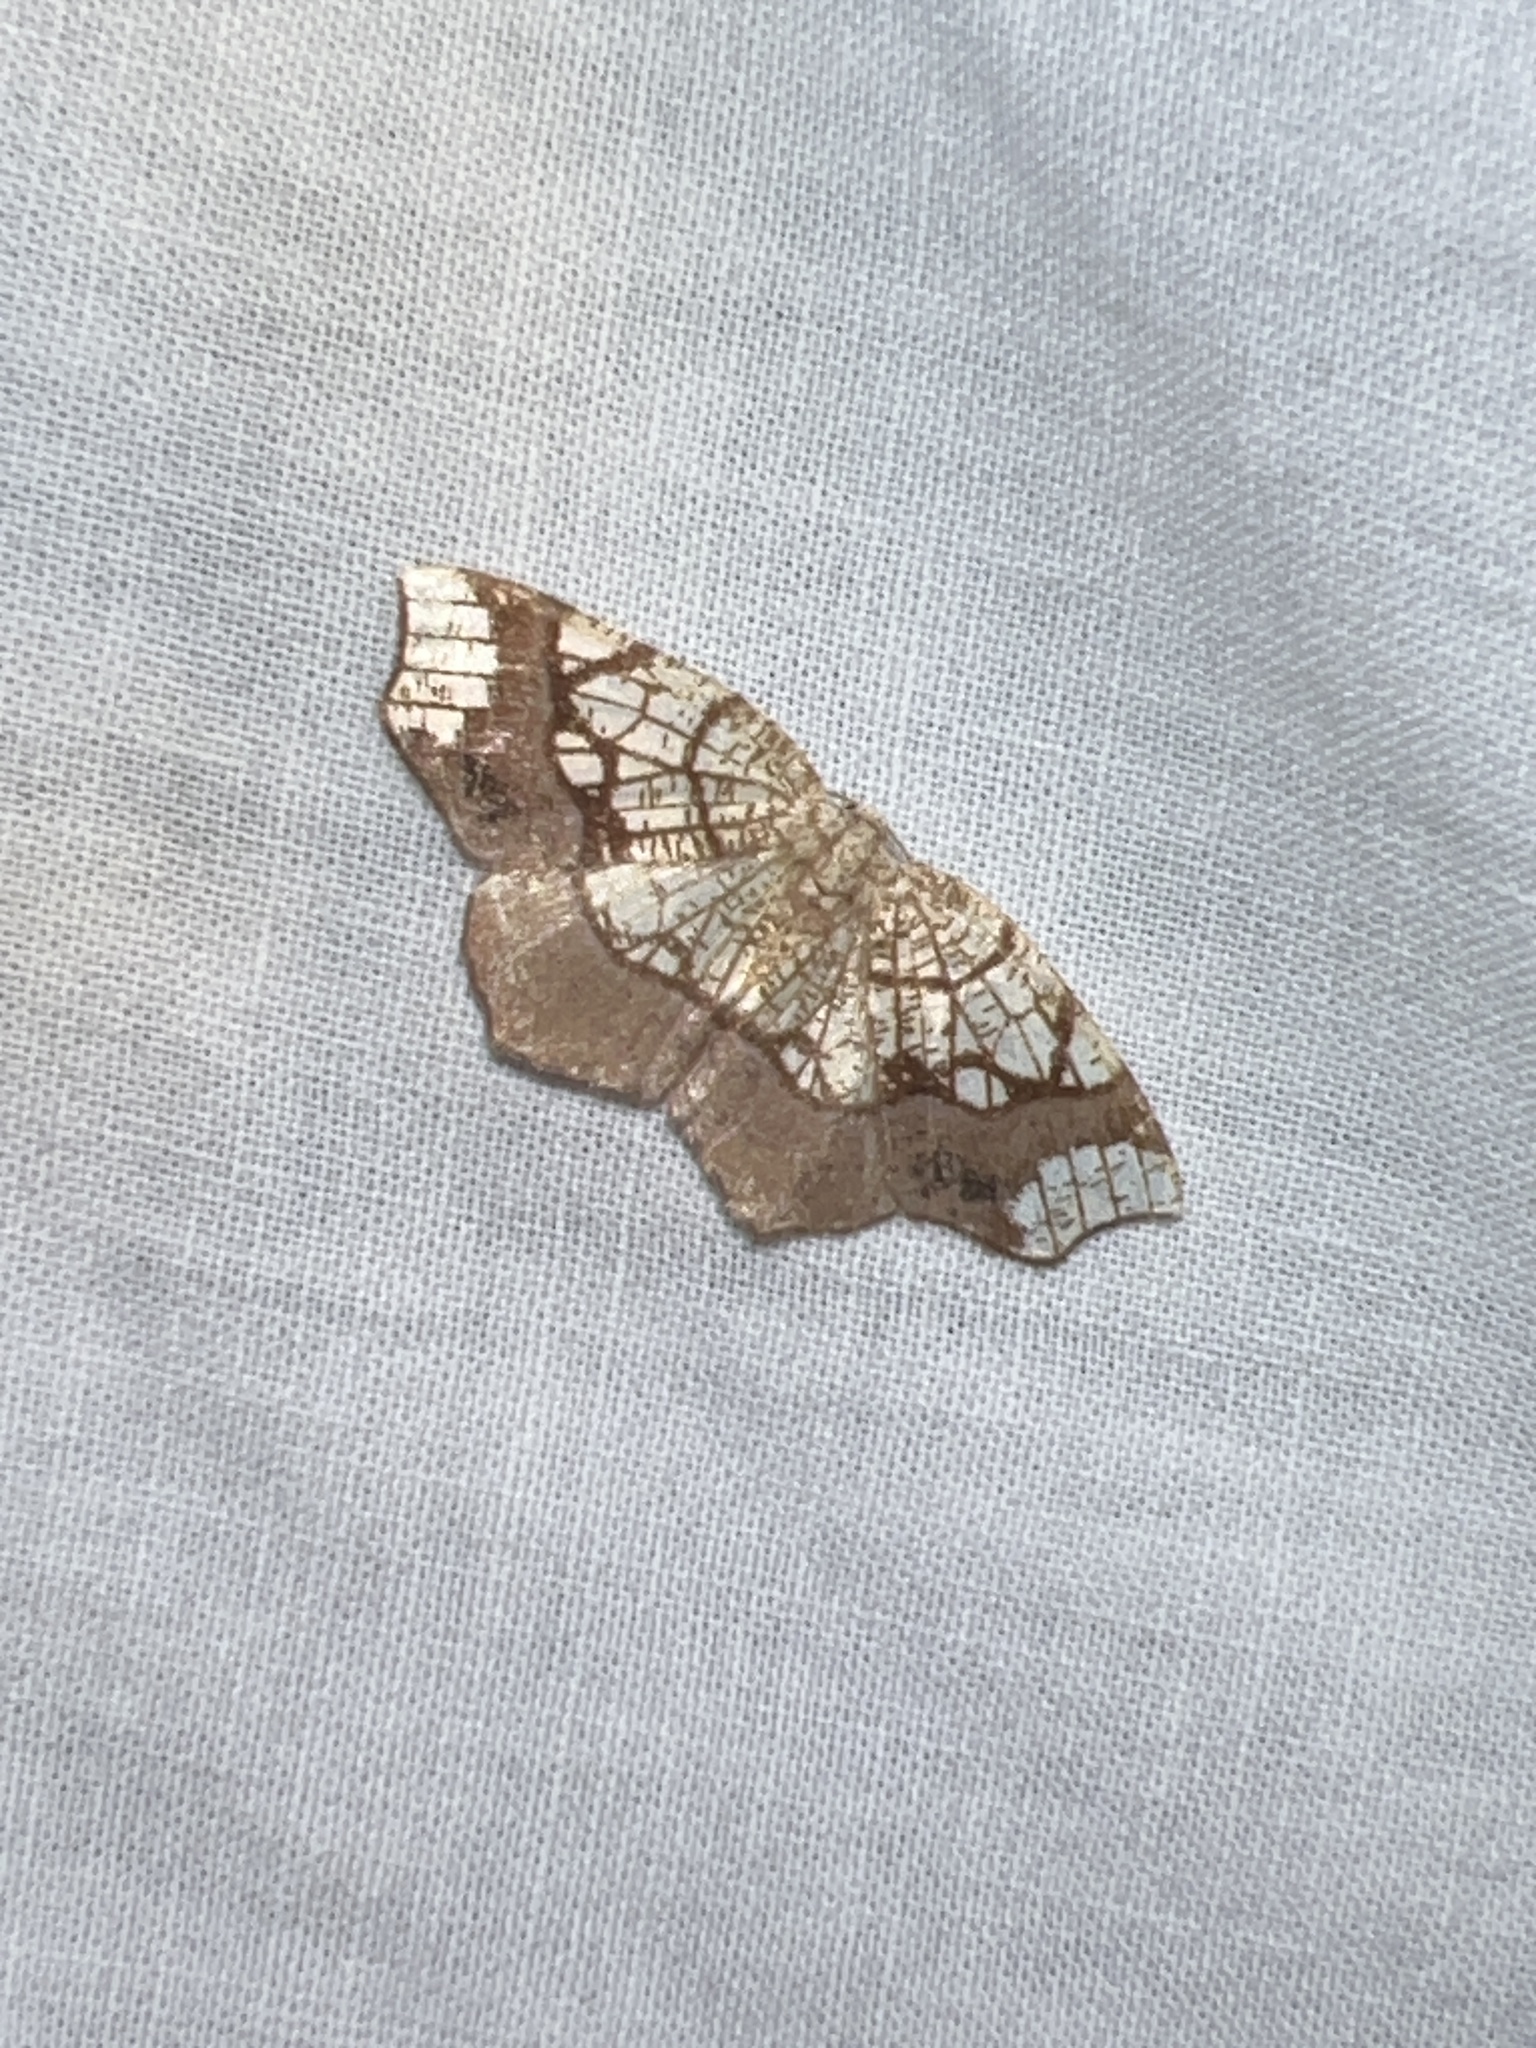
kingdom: Animalia
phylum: Arthropoda
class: Insecta
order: Lepidoptera
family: Geometridae
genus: Nematocampa
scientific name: Nematocampa resistaria
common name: Horned spanworm moth
